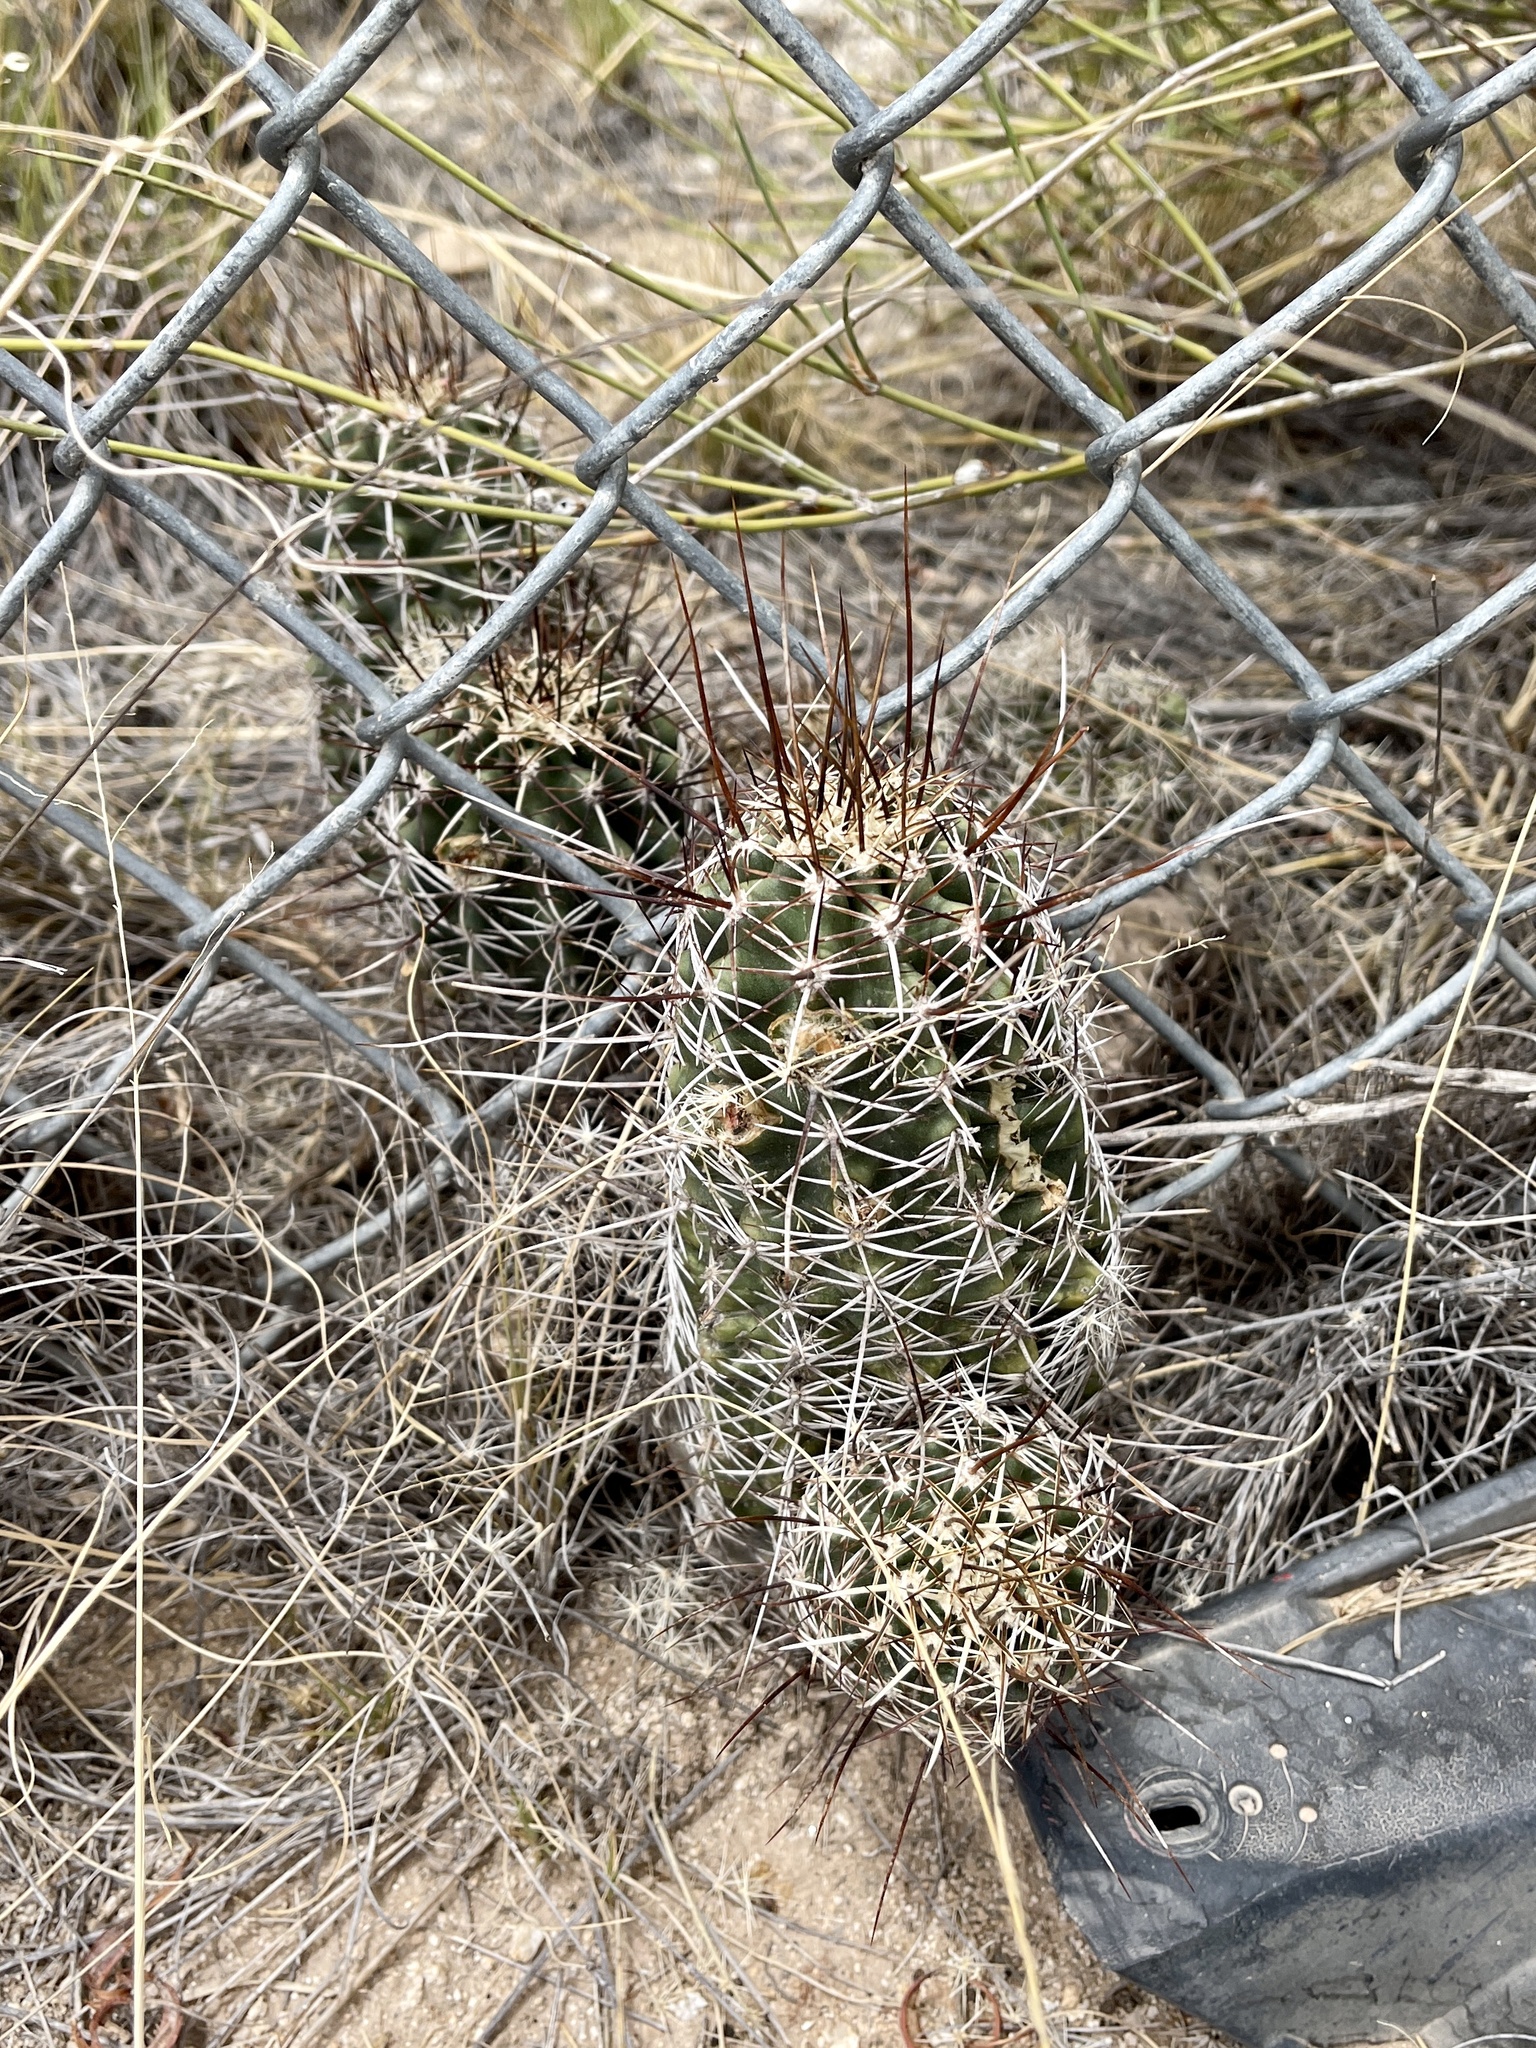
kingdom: Plantae
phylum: Tracheophyta
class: Magnoliopsida
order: Caryophyllales
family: Cactaceae
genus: Echinocereus
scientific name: Echinocereus fasciculatus
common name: Bundle hedgehog
